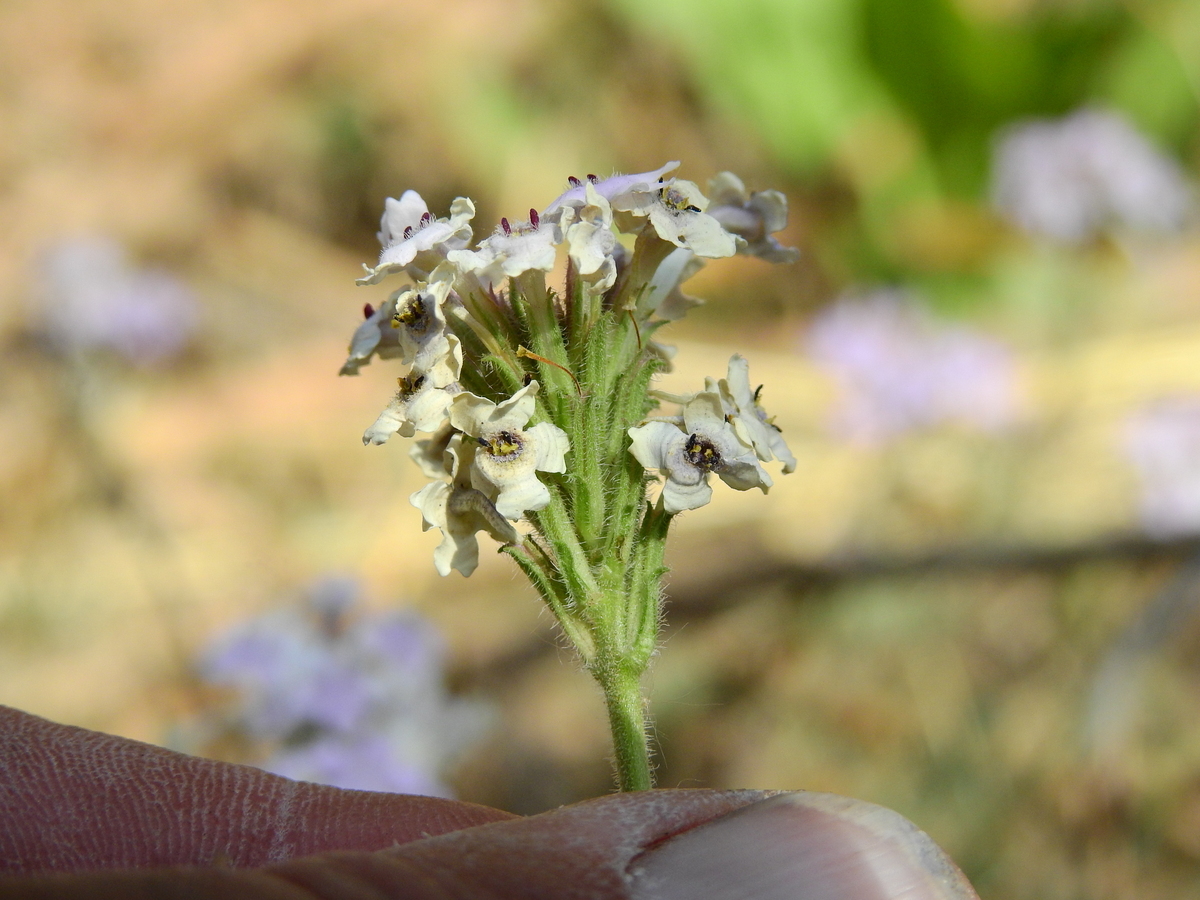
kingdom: Plantae
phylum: Tracheophyta
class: Magnoliopsida
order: Lamiales
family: Verbenaceae
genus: Verbena
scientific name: Verbena parodii
